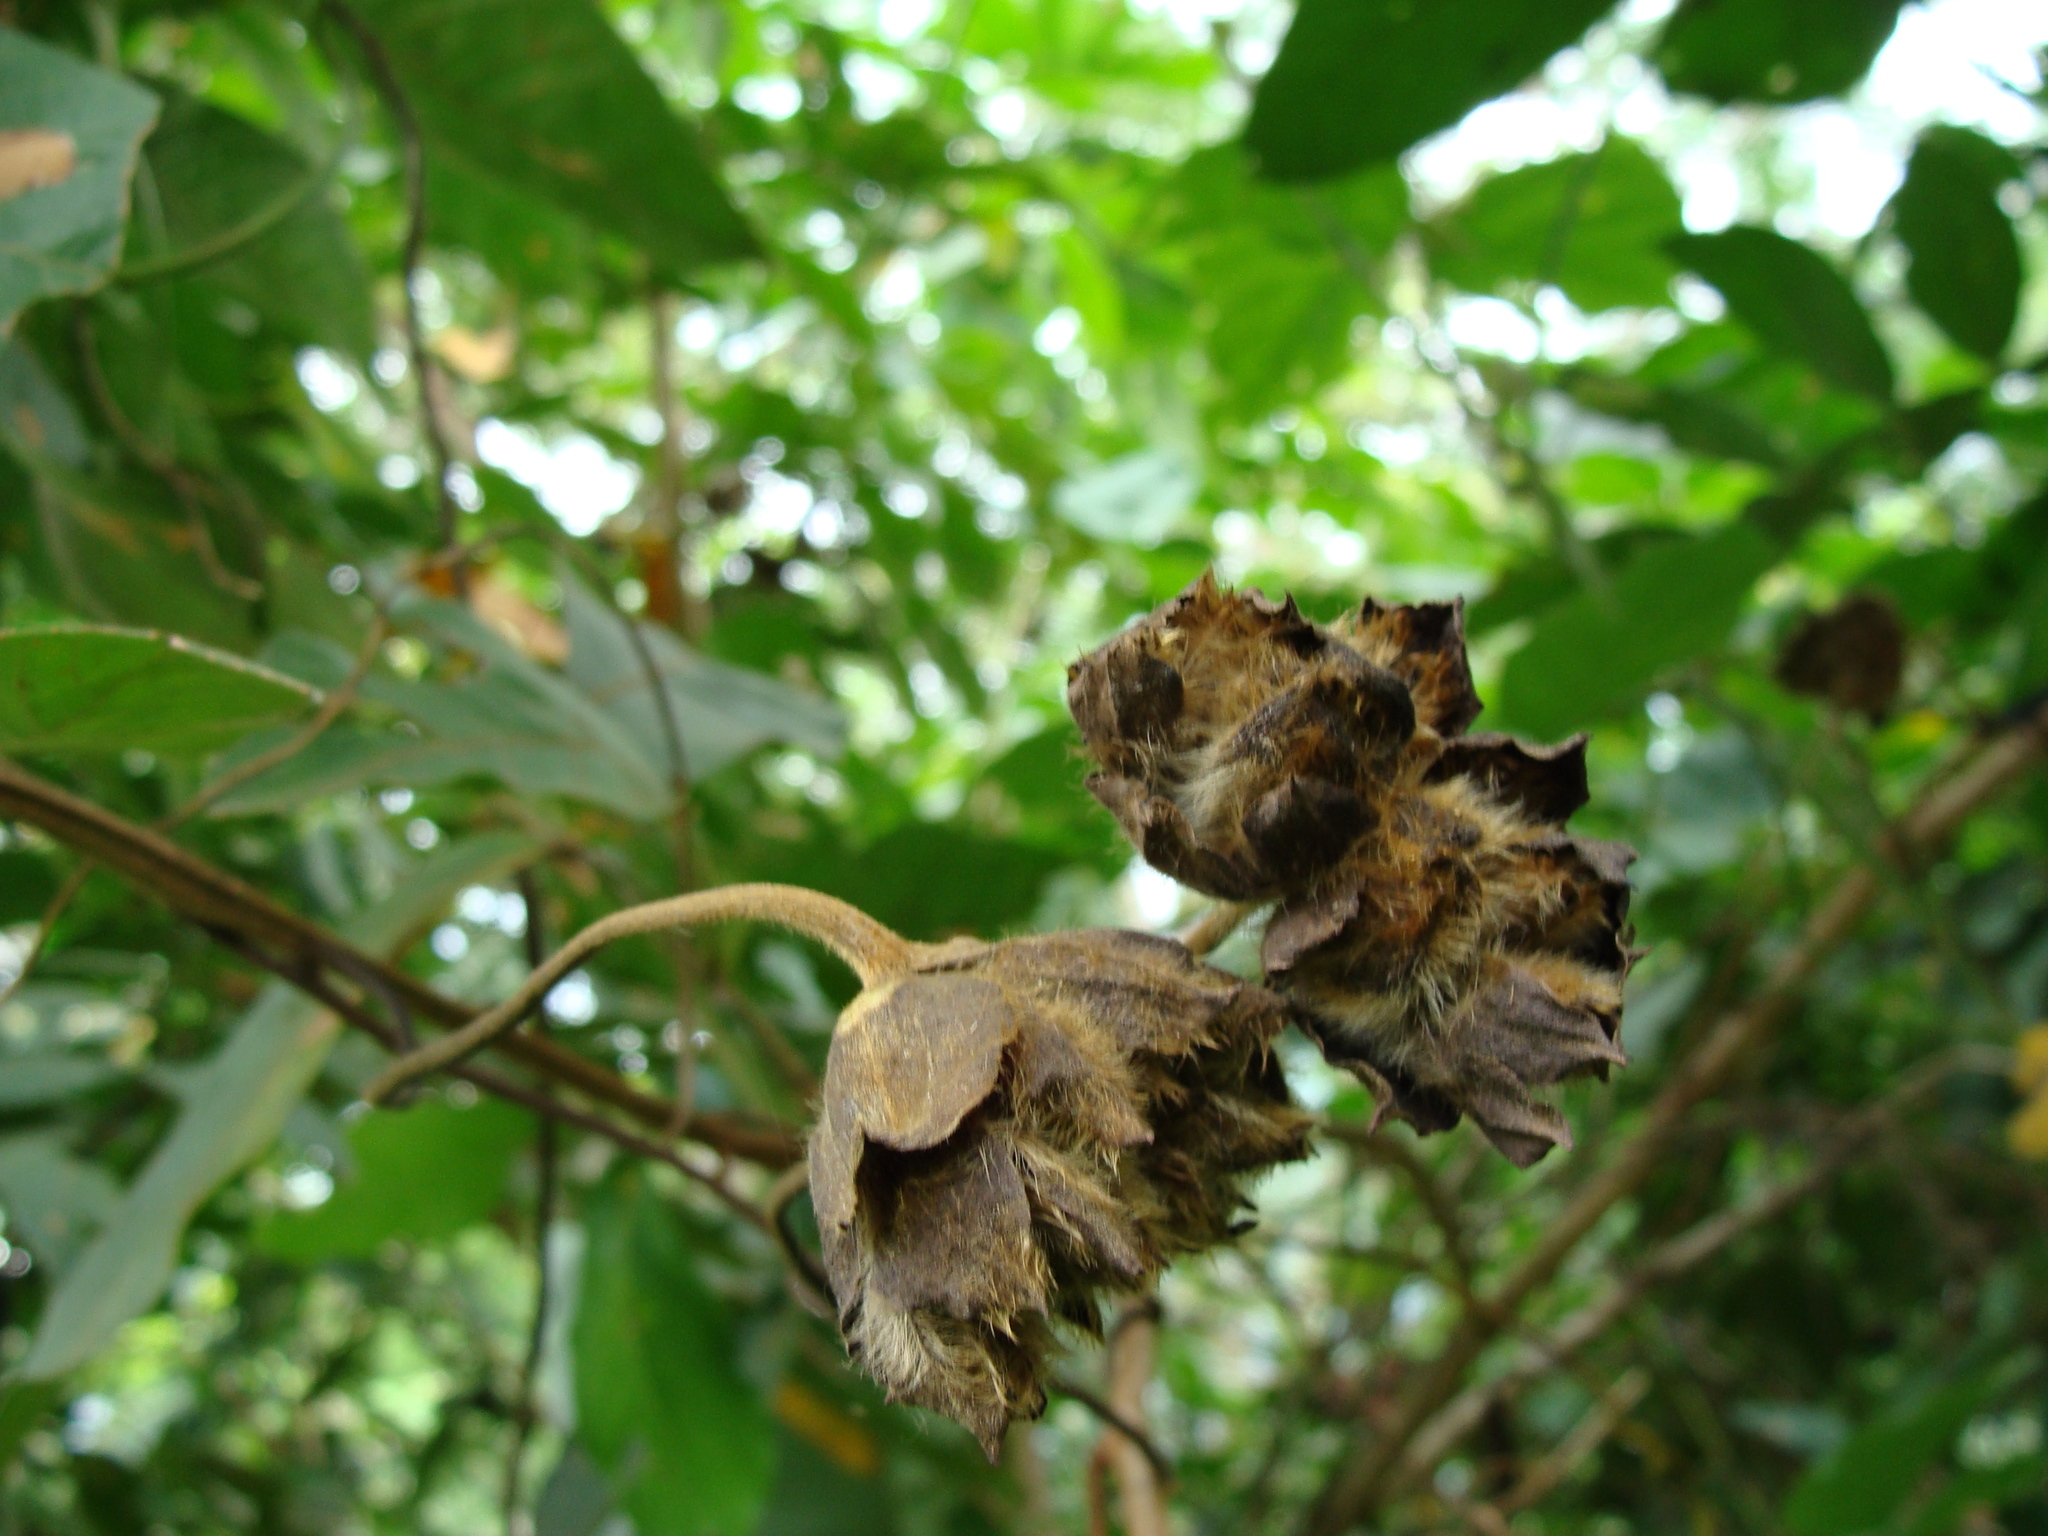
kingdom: Plantae
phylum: Tracheophyta
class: Magnoliopsida
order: Solanales
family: Convolvulaceae
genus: Odonellia
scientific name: Odonellia hirtiflora
